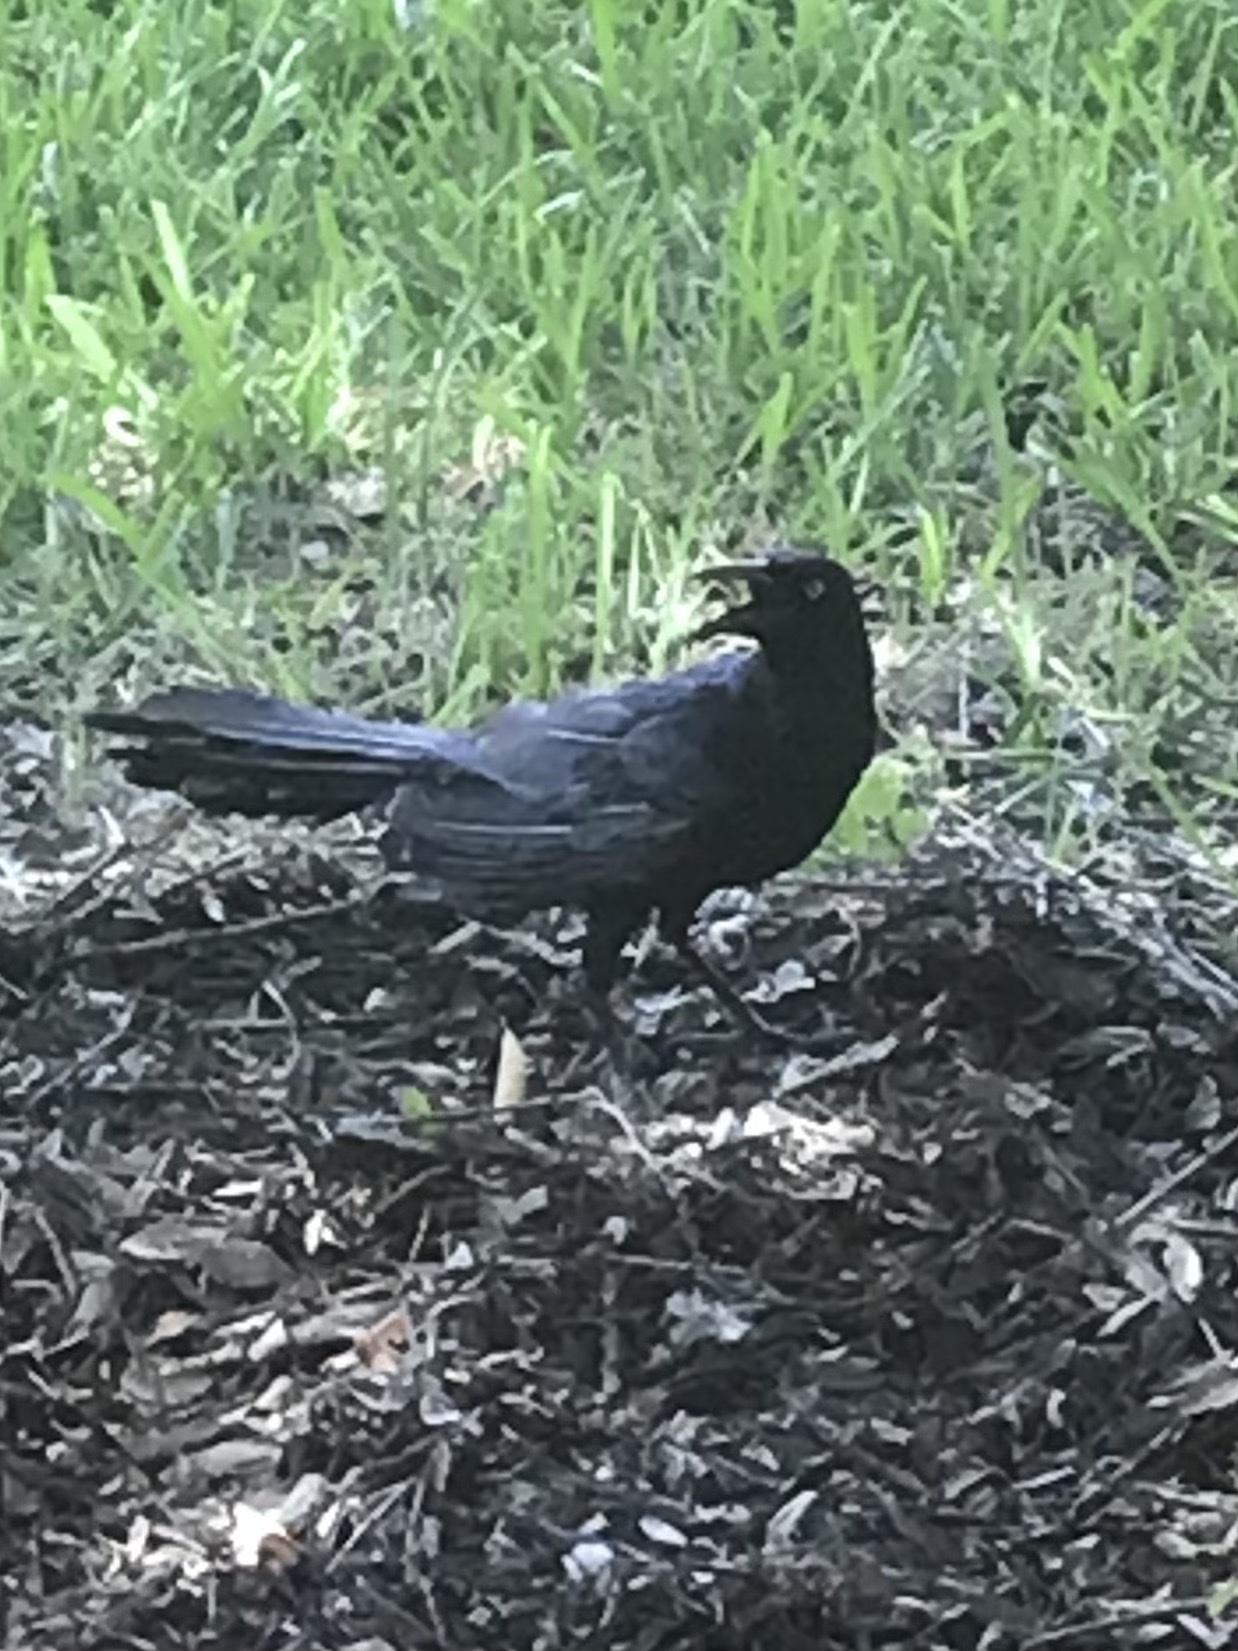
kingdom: Animalia
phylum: Chordata
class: Aves
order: Passeriformes
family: Icteridae
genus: Quiscalus
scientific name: Quiscalus mexicanus
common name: Great-tailed grackle
